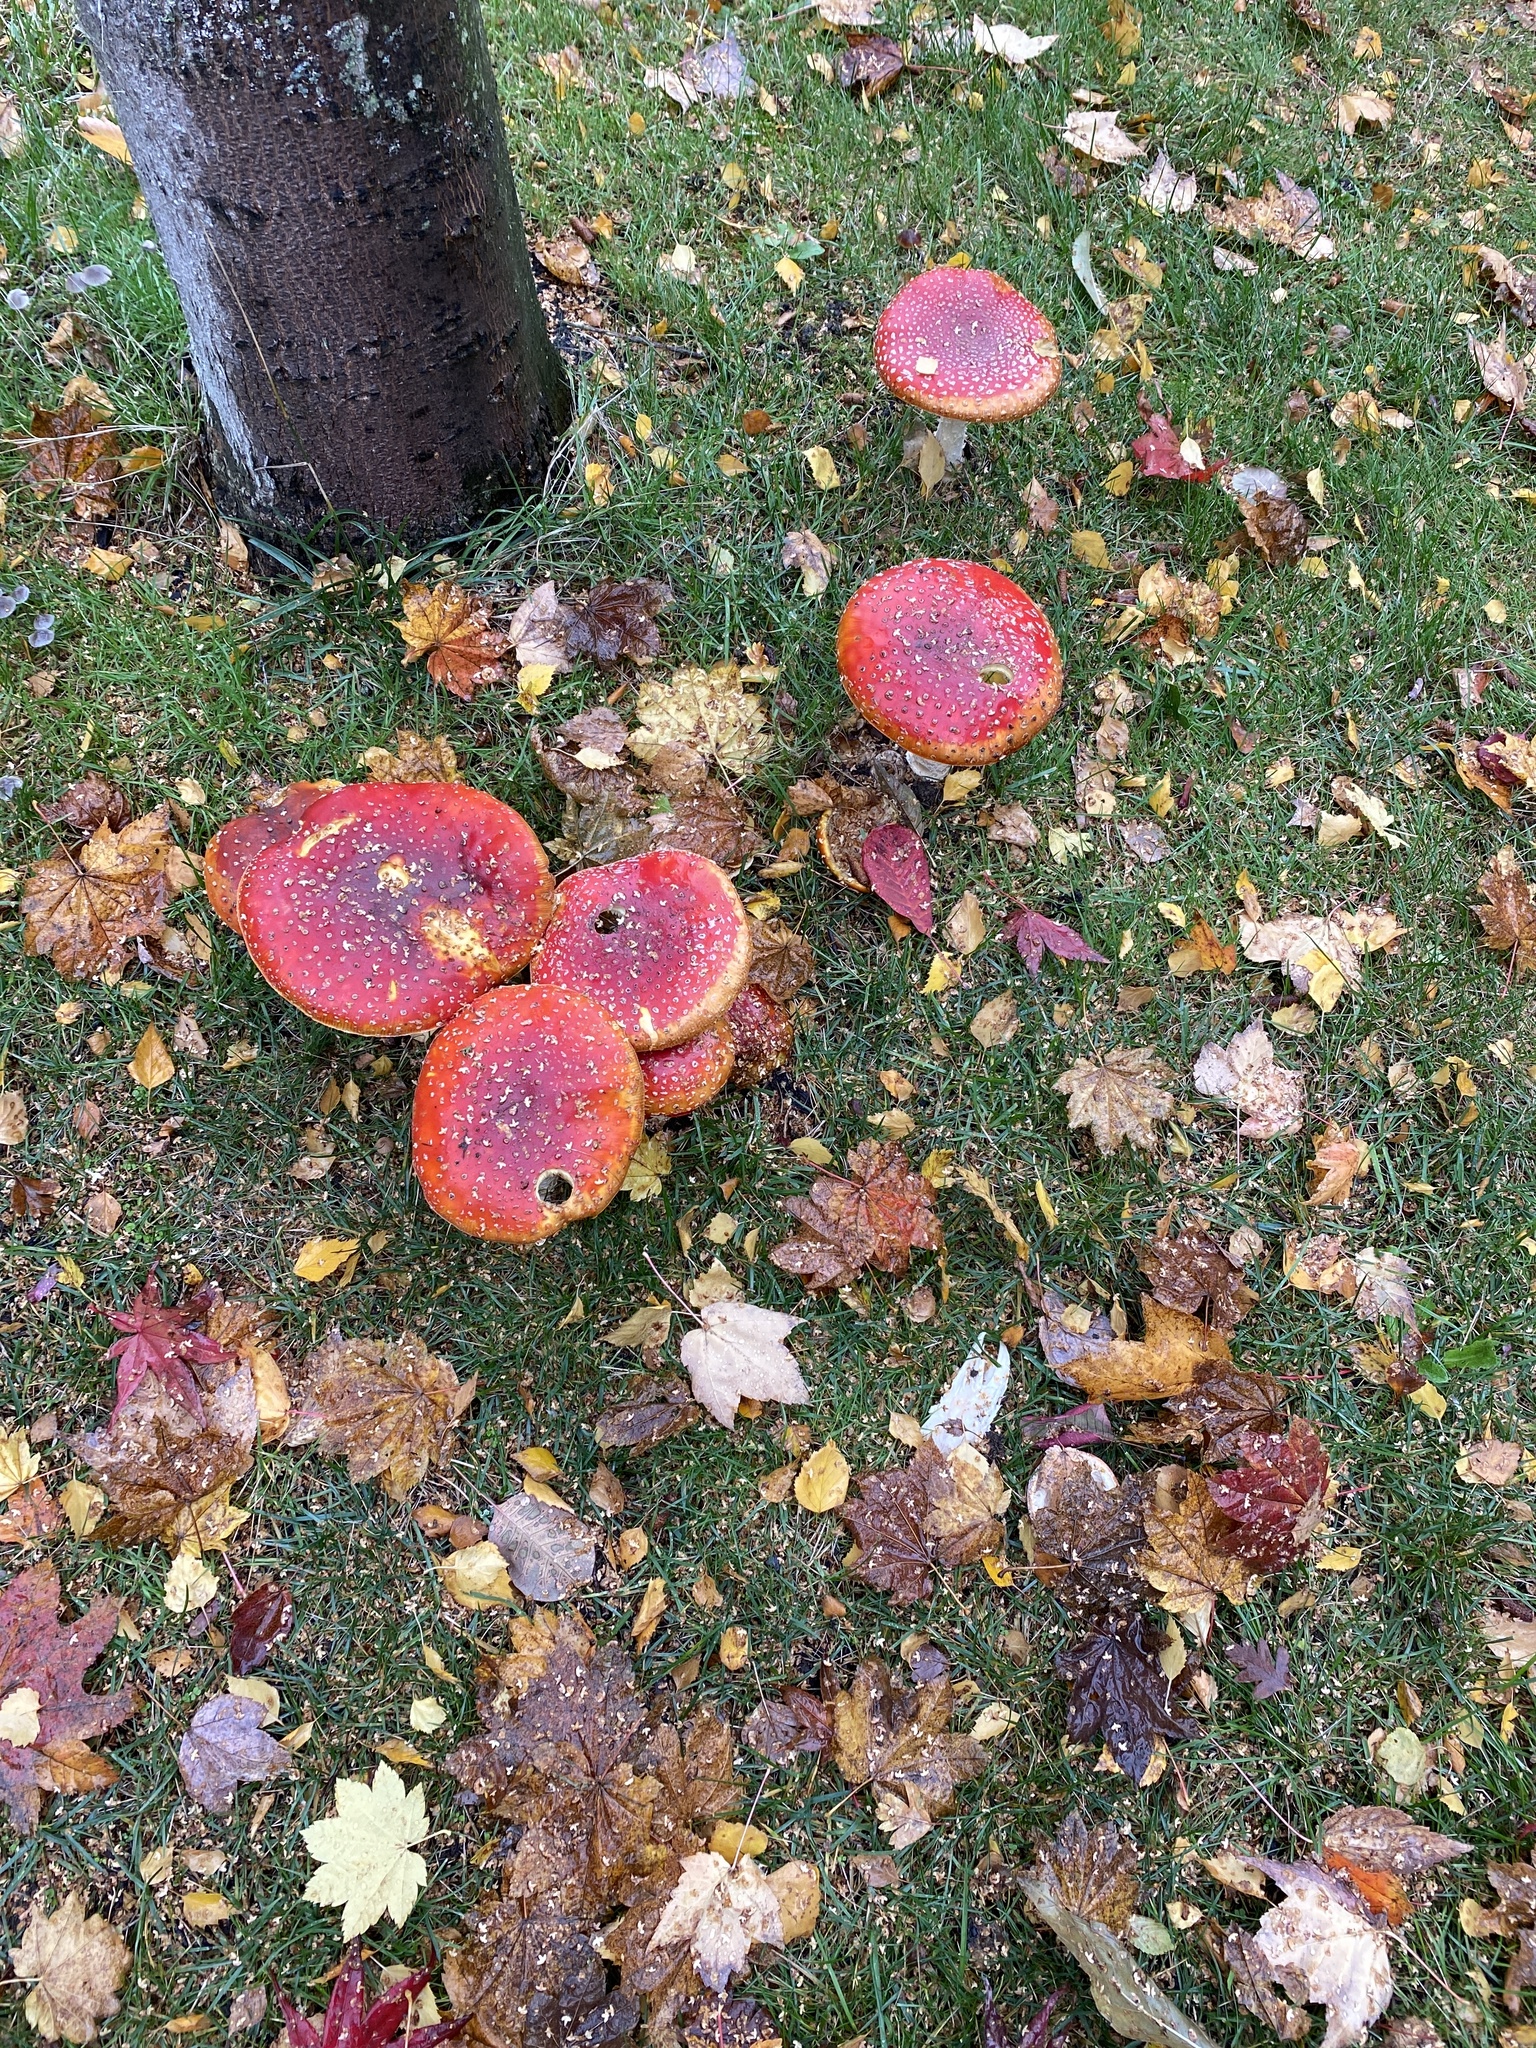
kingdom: Fungi
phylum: Basidiomycota
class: Agaricomycetes
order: Agaricales
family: Amanitaceae
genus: Amanita
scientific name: Amanita muscaria
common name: Fly agaric
